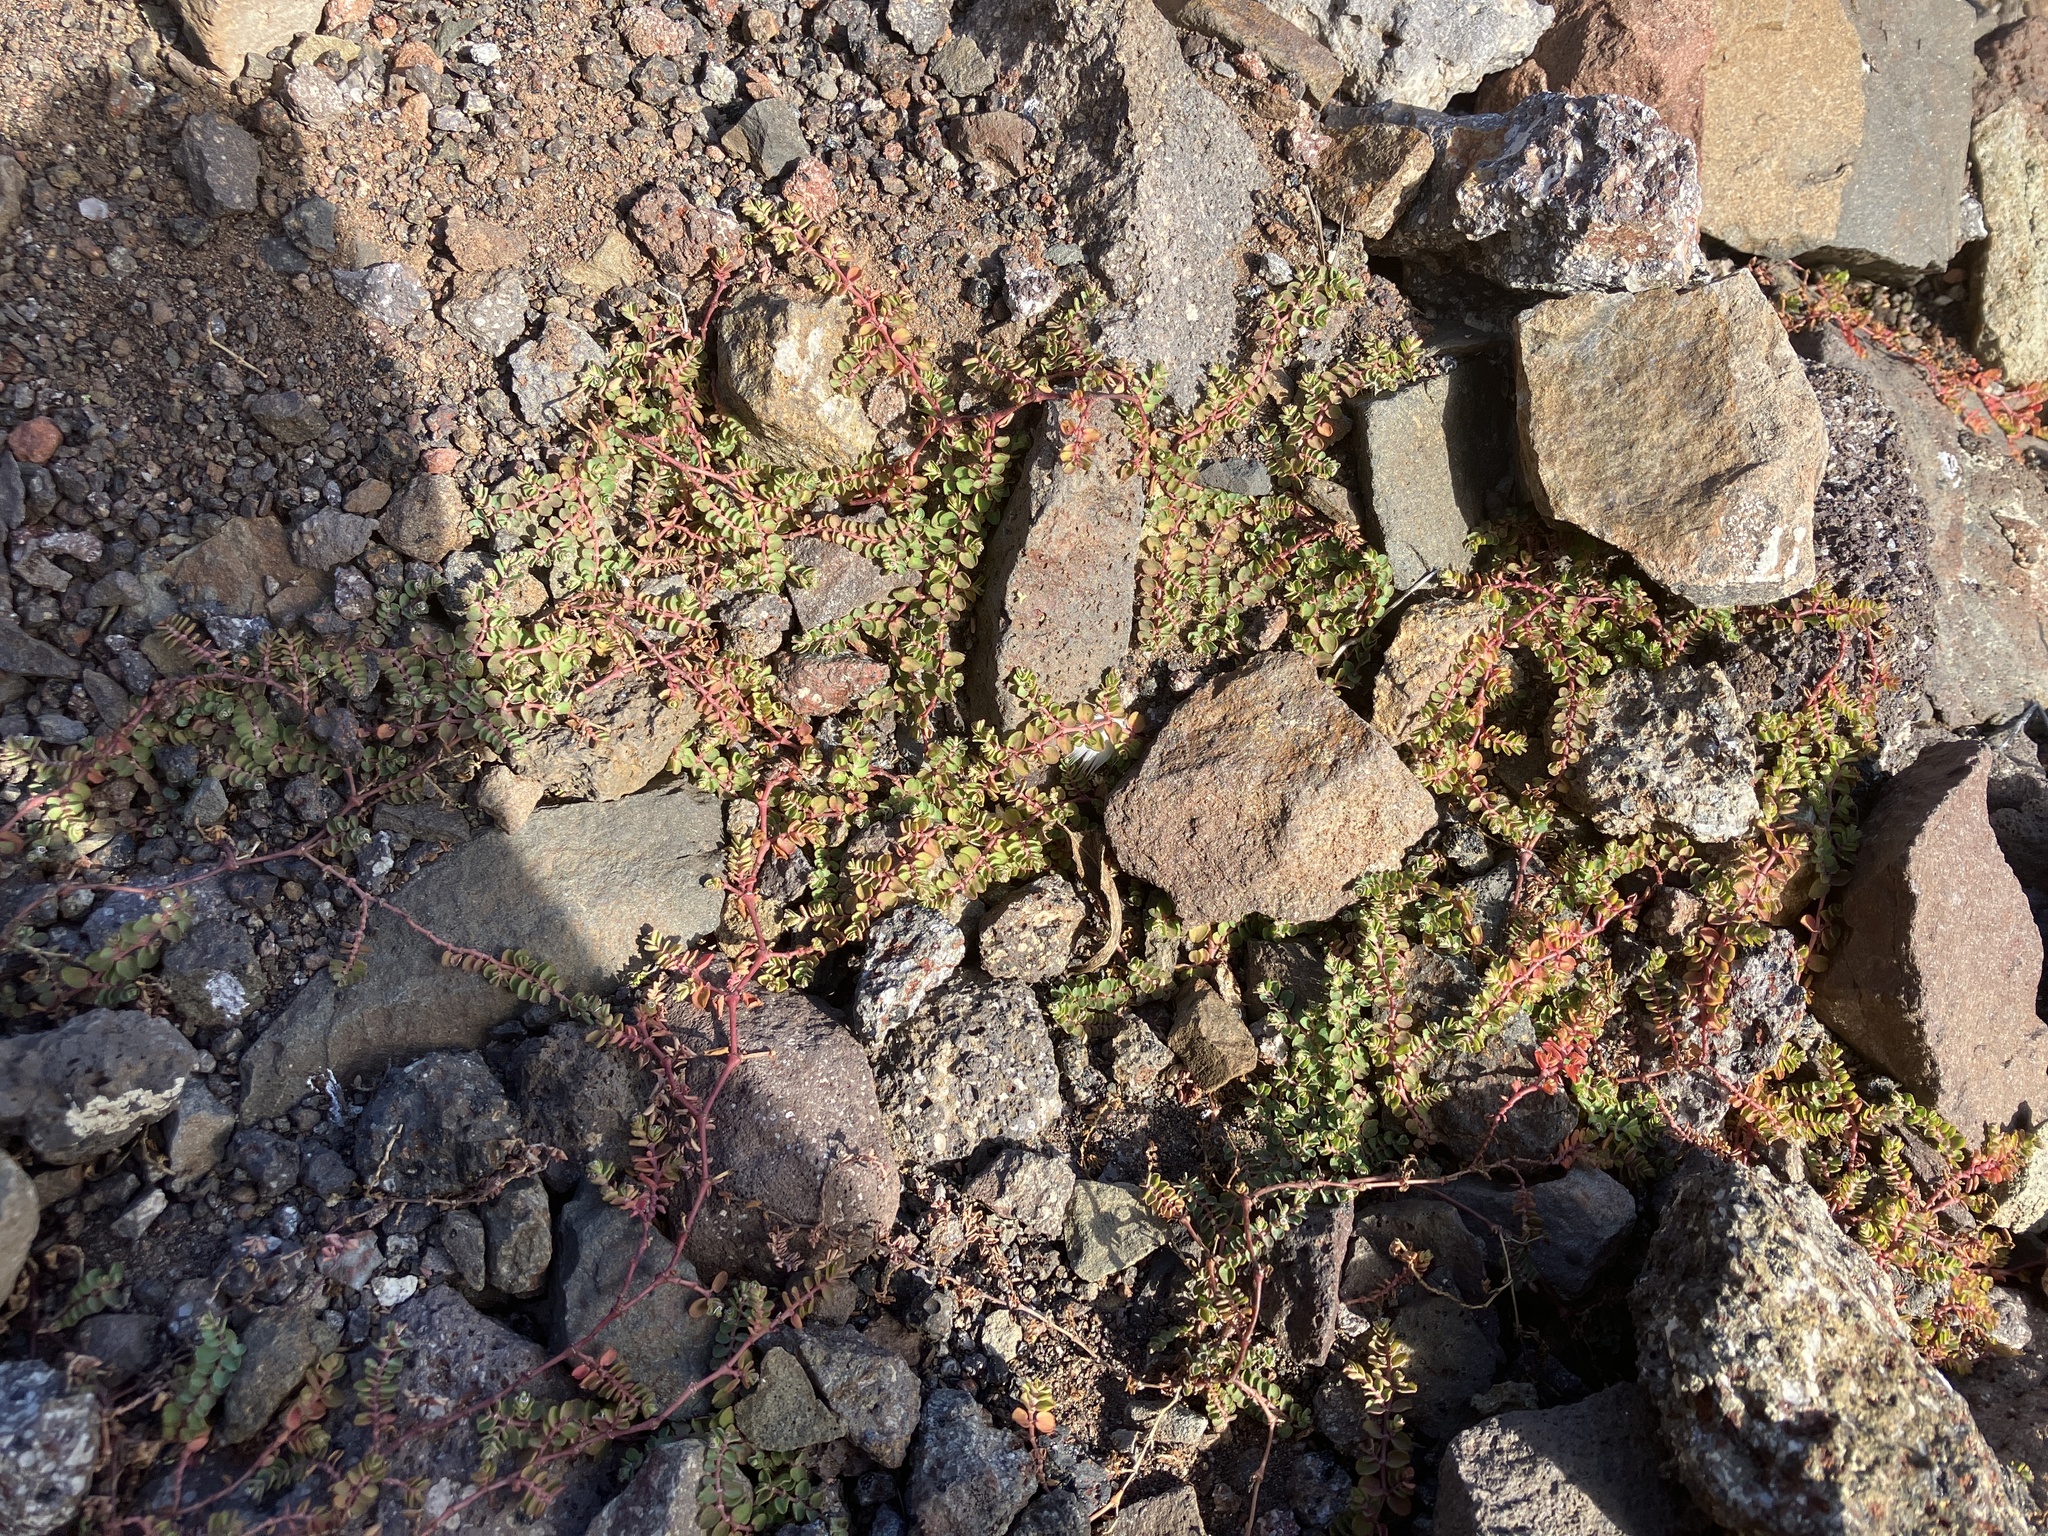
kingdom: Plantae
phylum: Tracheophyta
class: Magnoliopsida
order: Malpighiales
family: Euphorbiaceae
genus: Euphorbia
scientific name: Euphorbia serpens
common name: Matted sandmat
